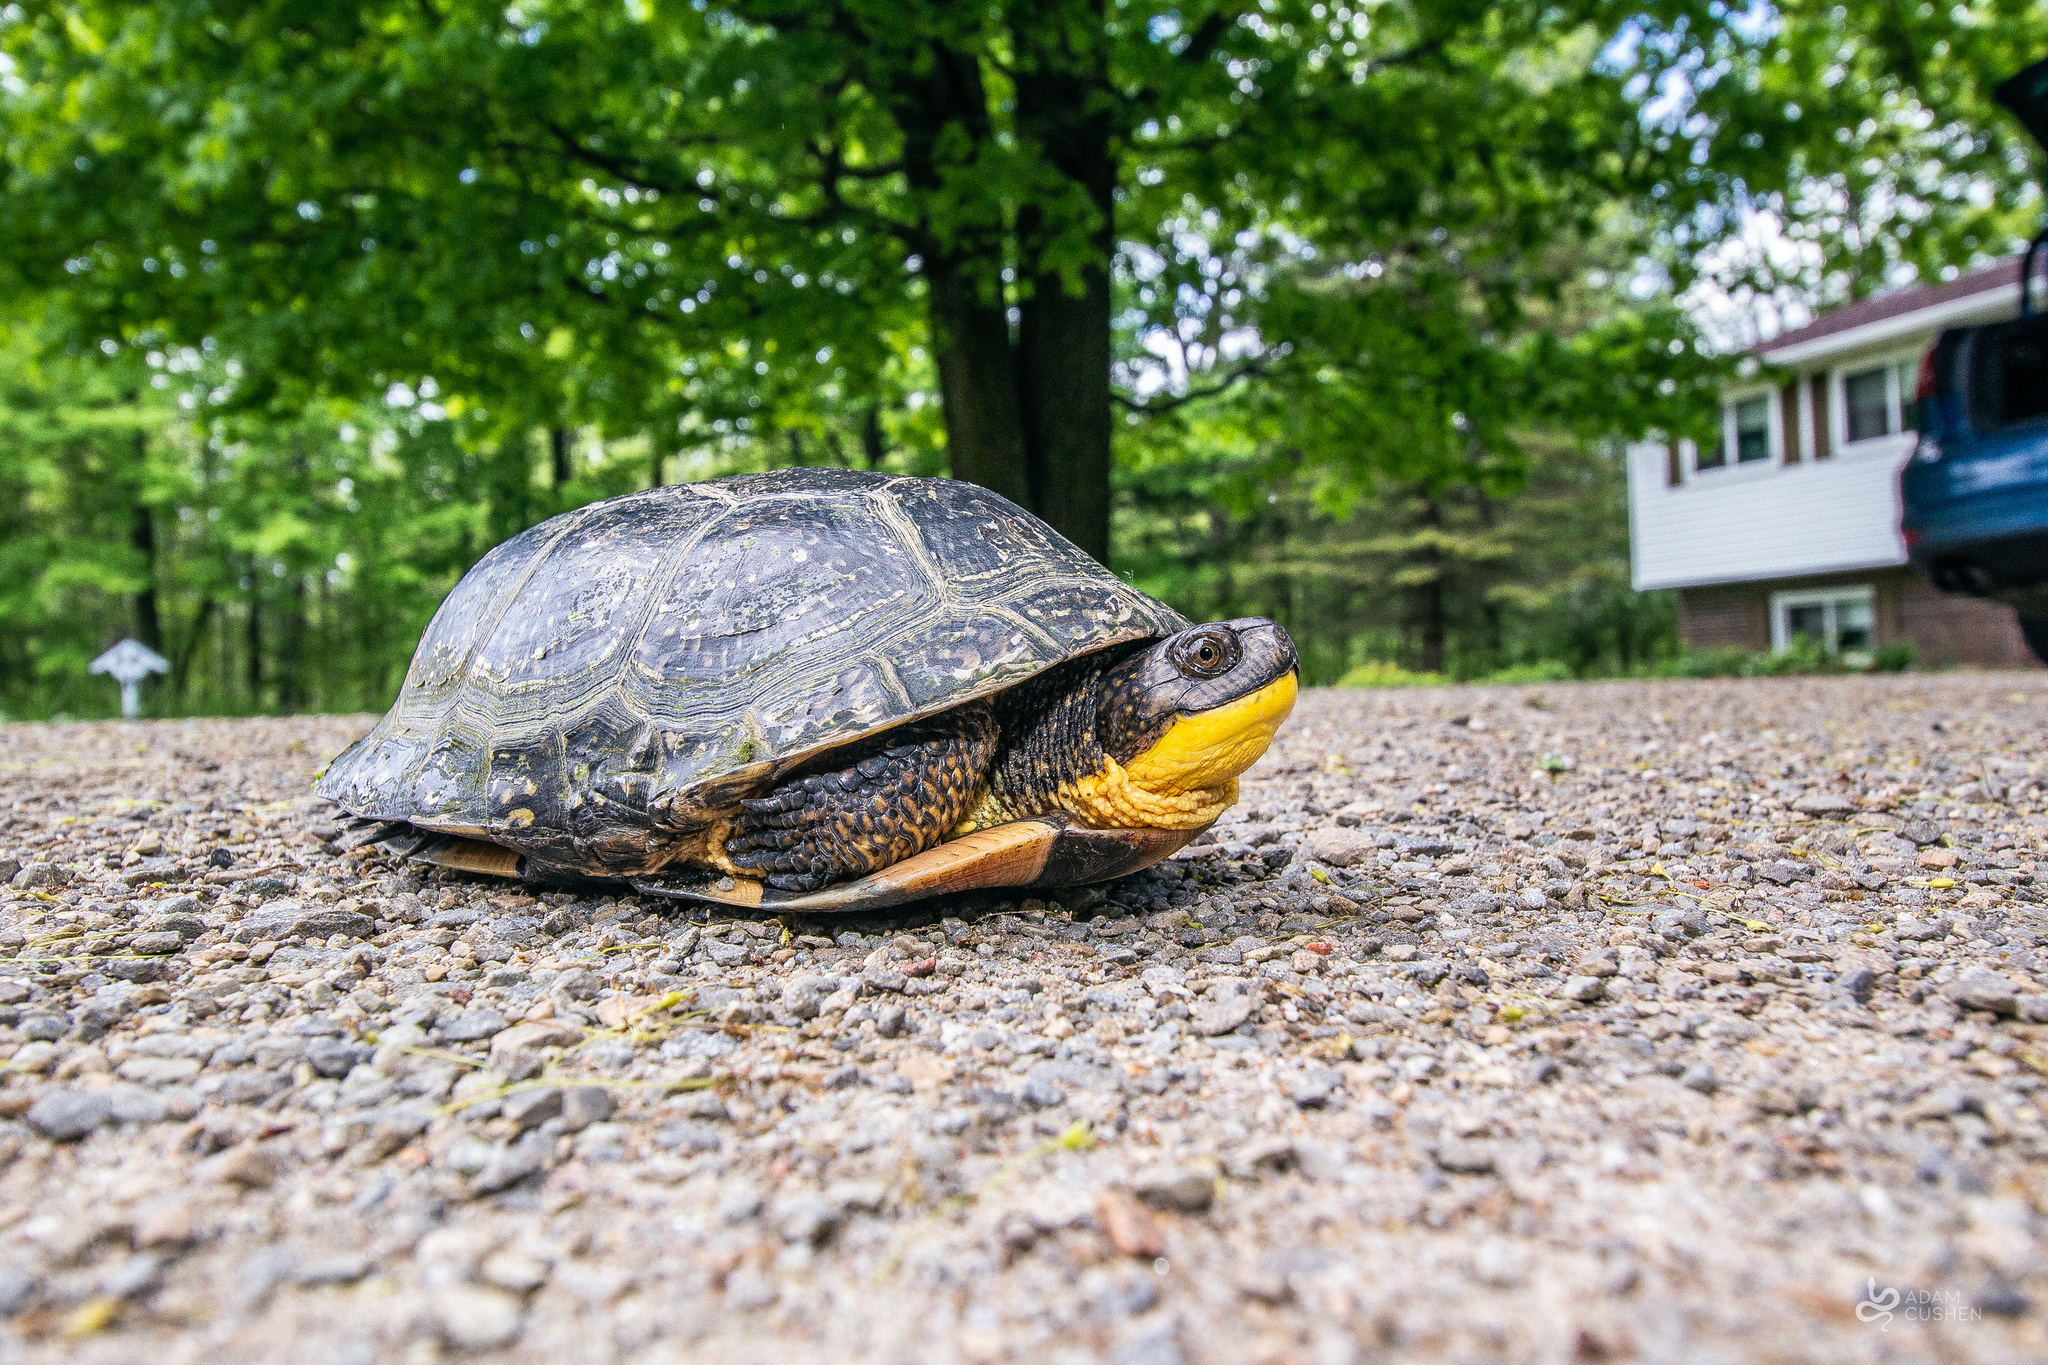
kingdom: Animalia
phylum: Chordata
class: Testudines
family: Emydidae
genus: Emys
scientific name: Emys blandingii
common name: Blanding's turtle
